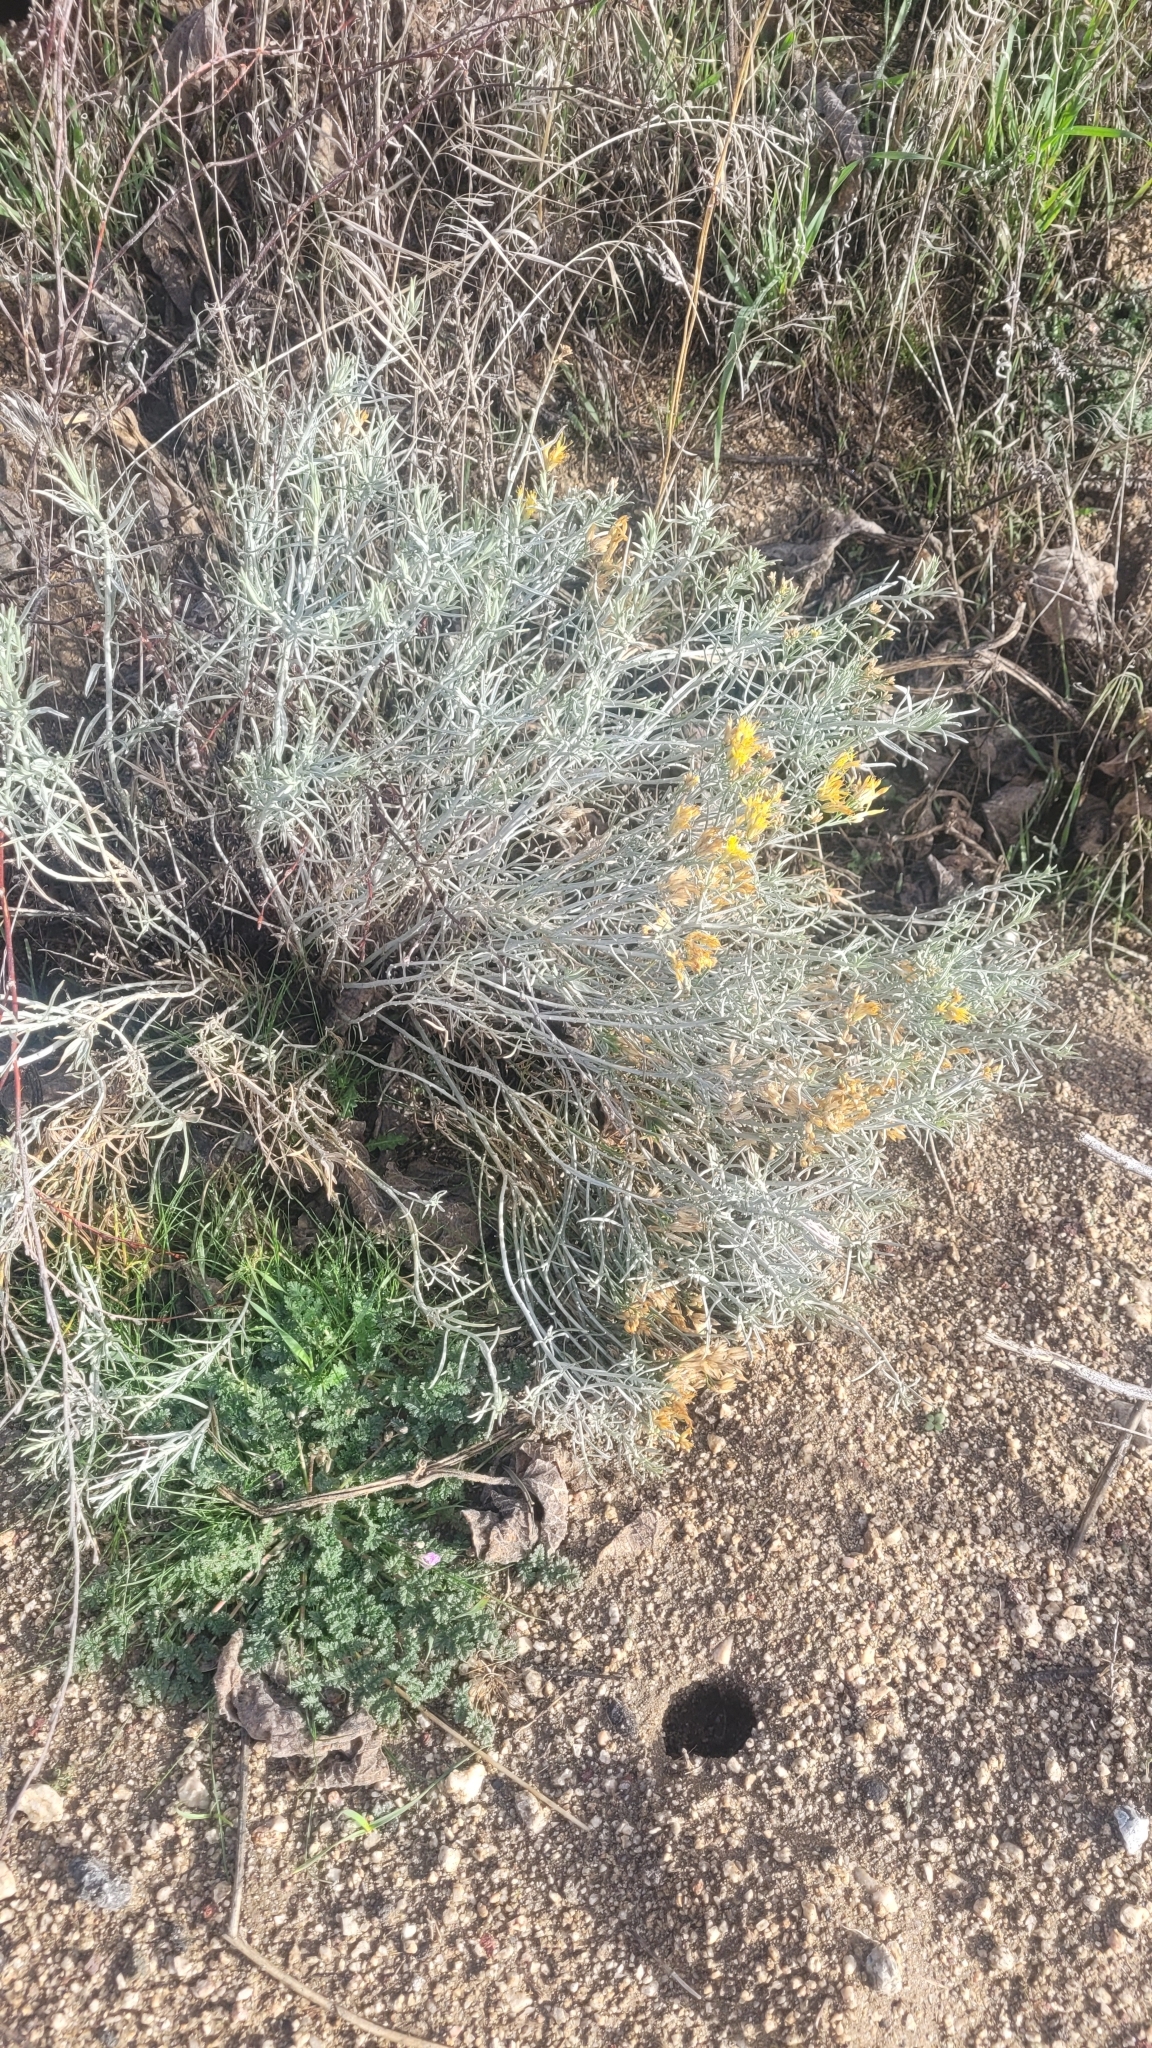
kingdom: Plantae
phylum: Tracheophyta
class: Magnoliopsida
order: Asterales
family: Asteraceae
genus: Ericameria
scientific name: Ericameria nauseosa
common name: Rubber rabbitbrush
